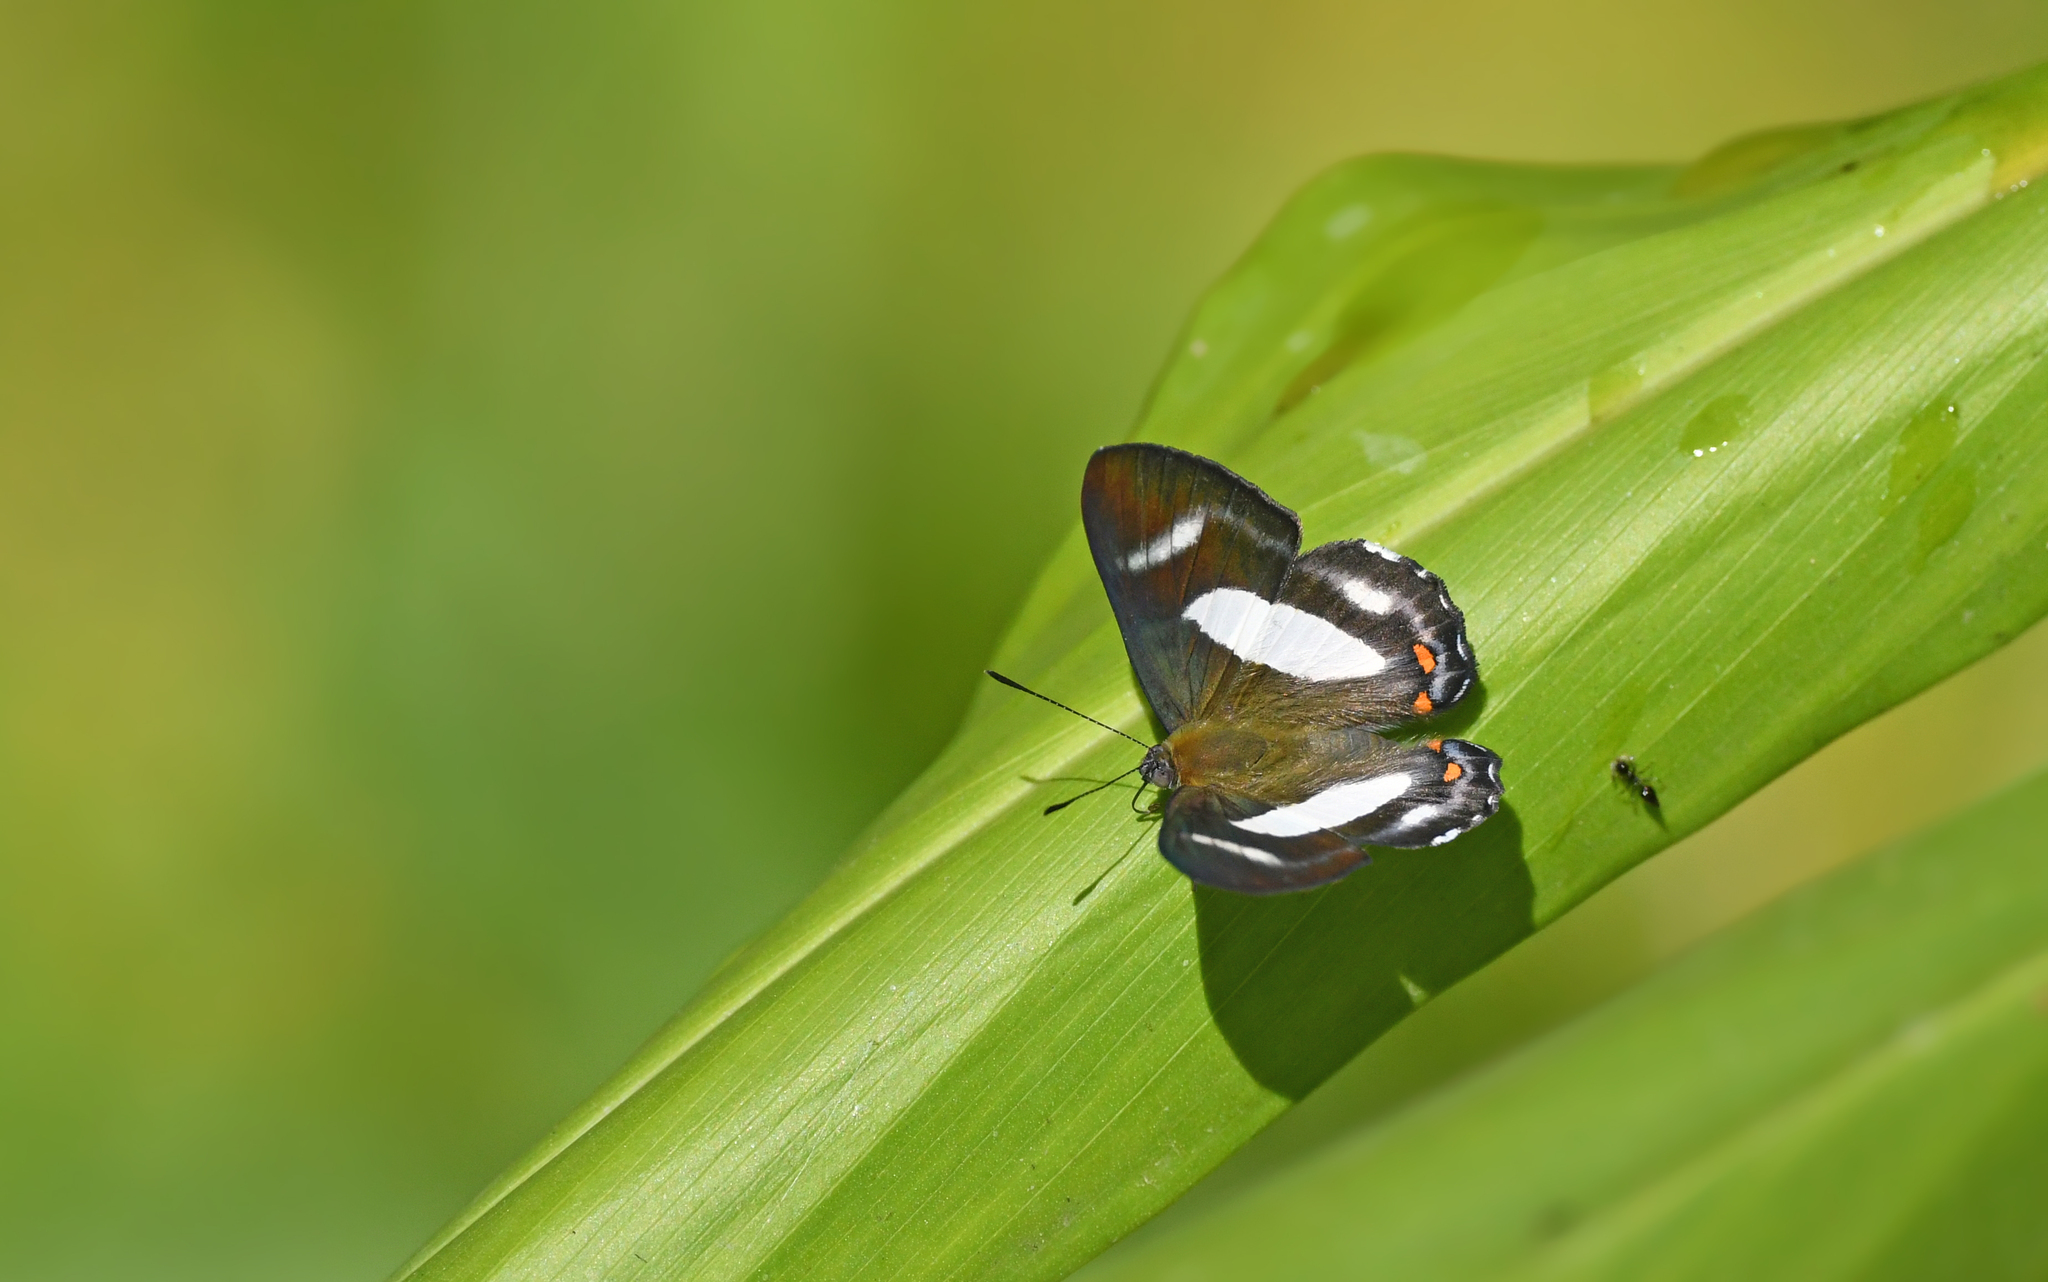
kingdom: Animalia
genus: Siseme
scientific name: Siseme alectryo
